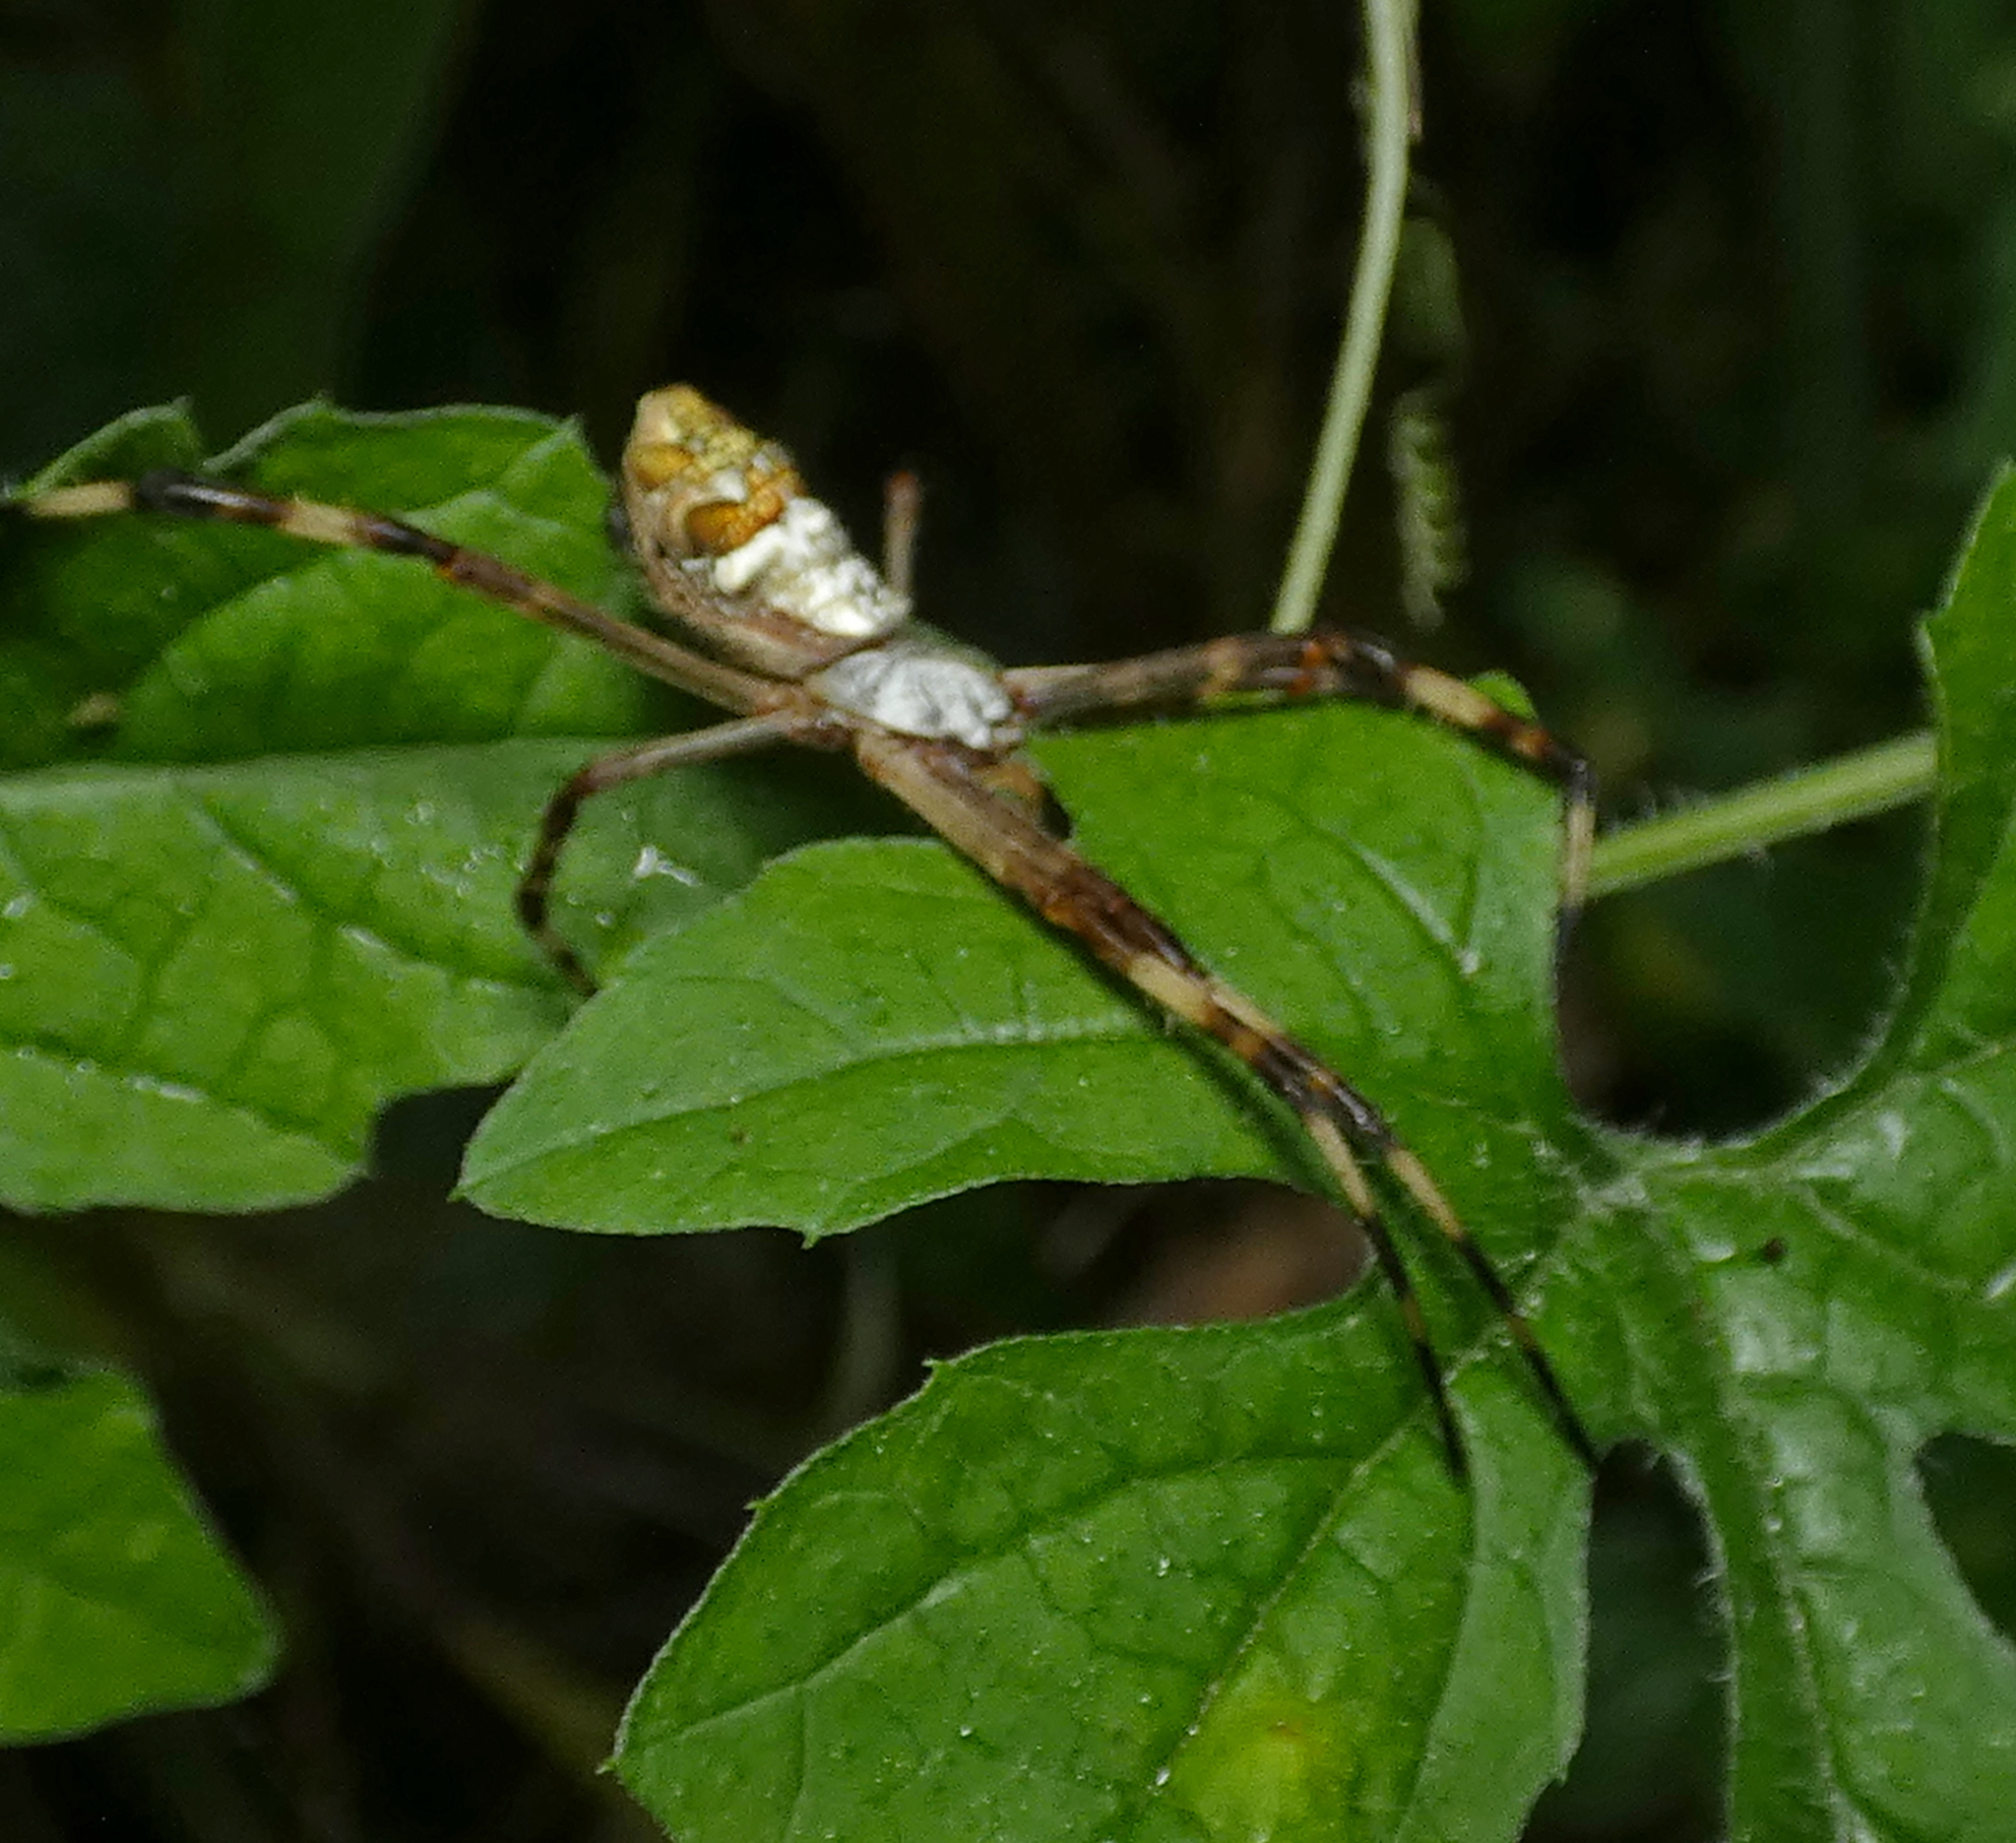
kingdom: Animalia
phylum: Arthropoda
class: Arachnida
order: Araneae
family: Araneidae
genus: Argiope
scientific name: Argiope argentata
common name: Orb weavers
